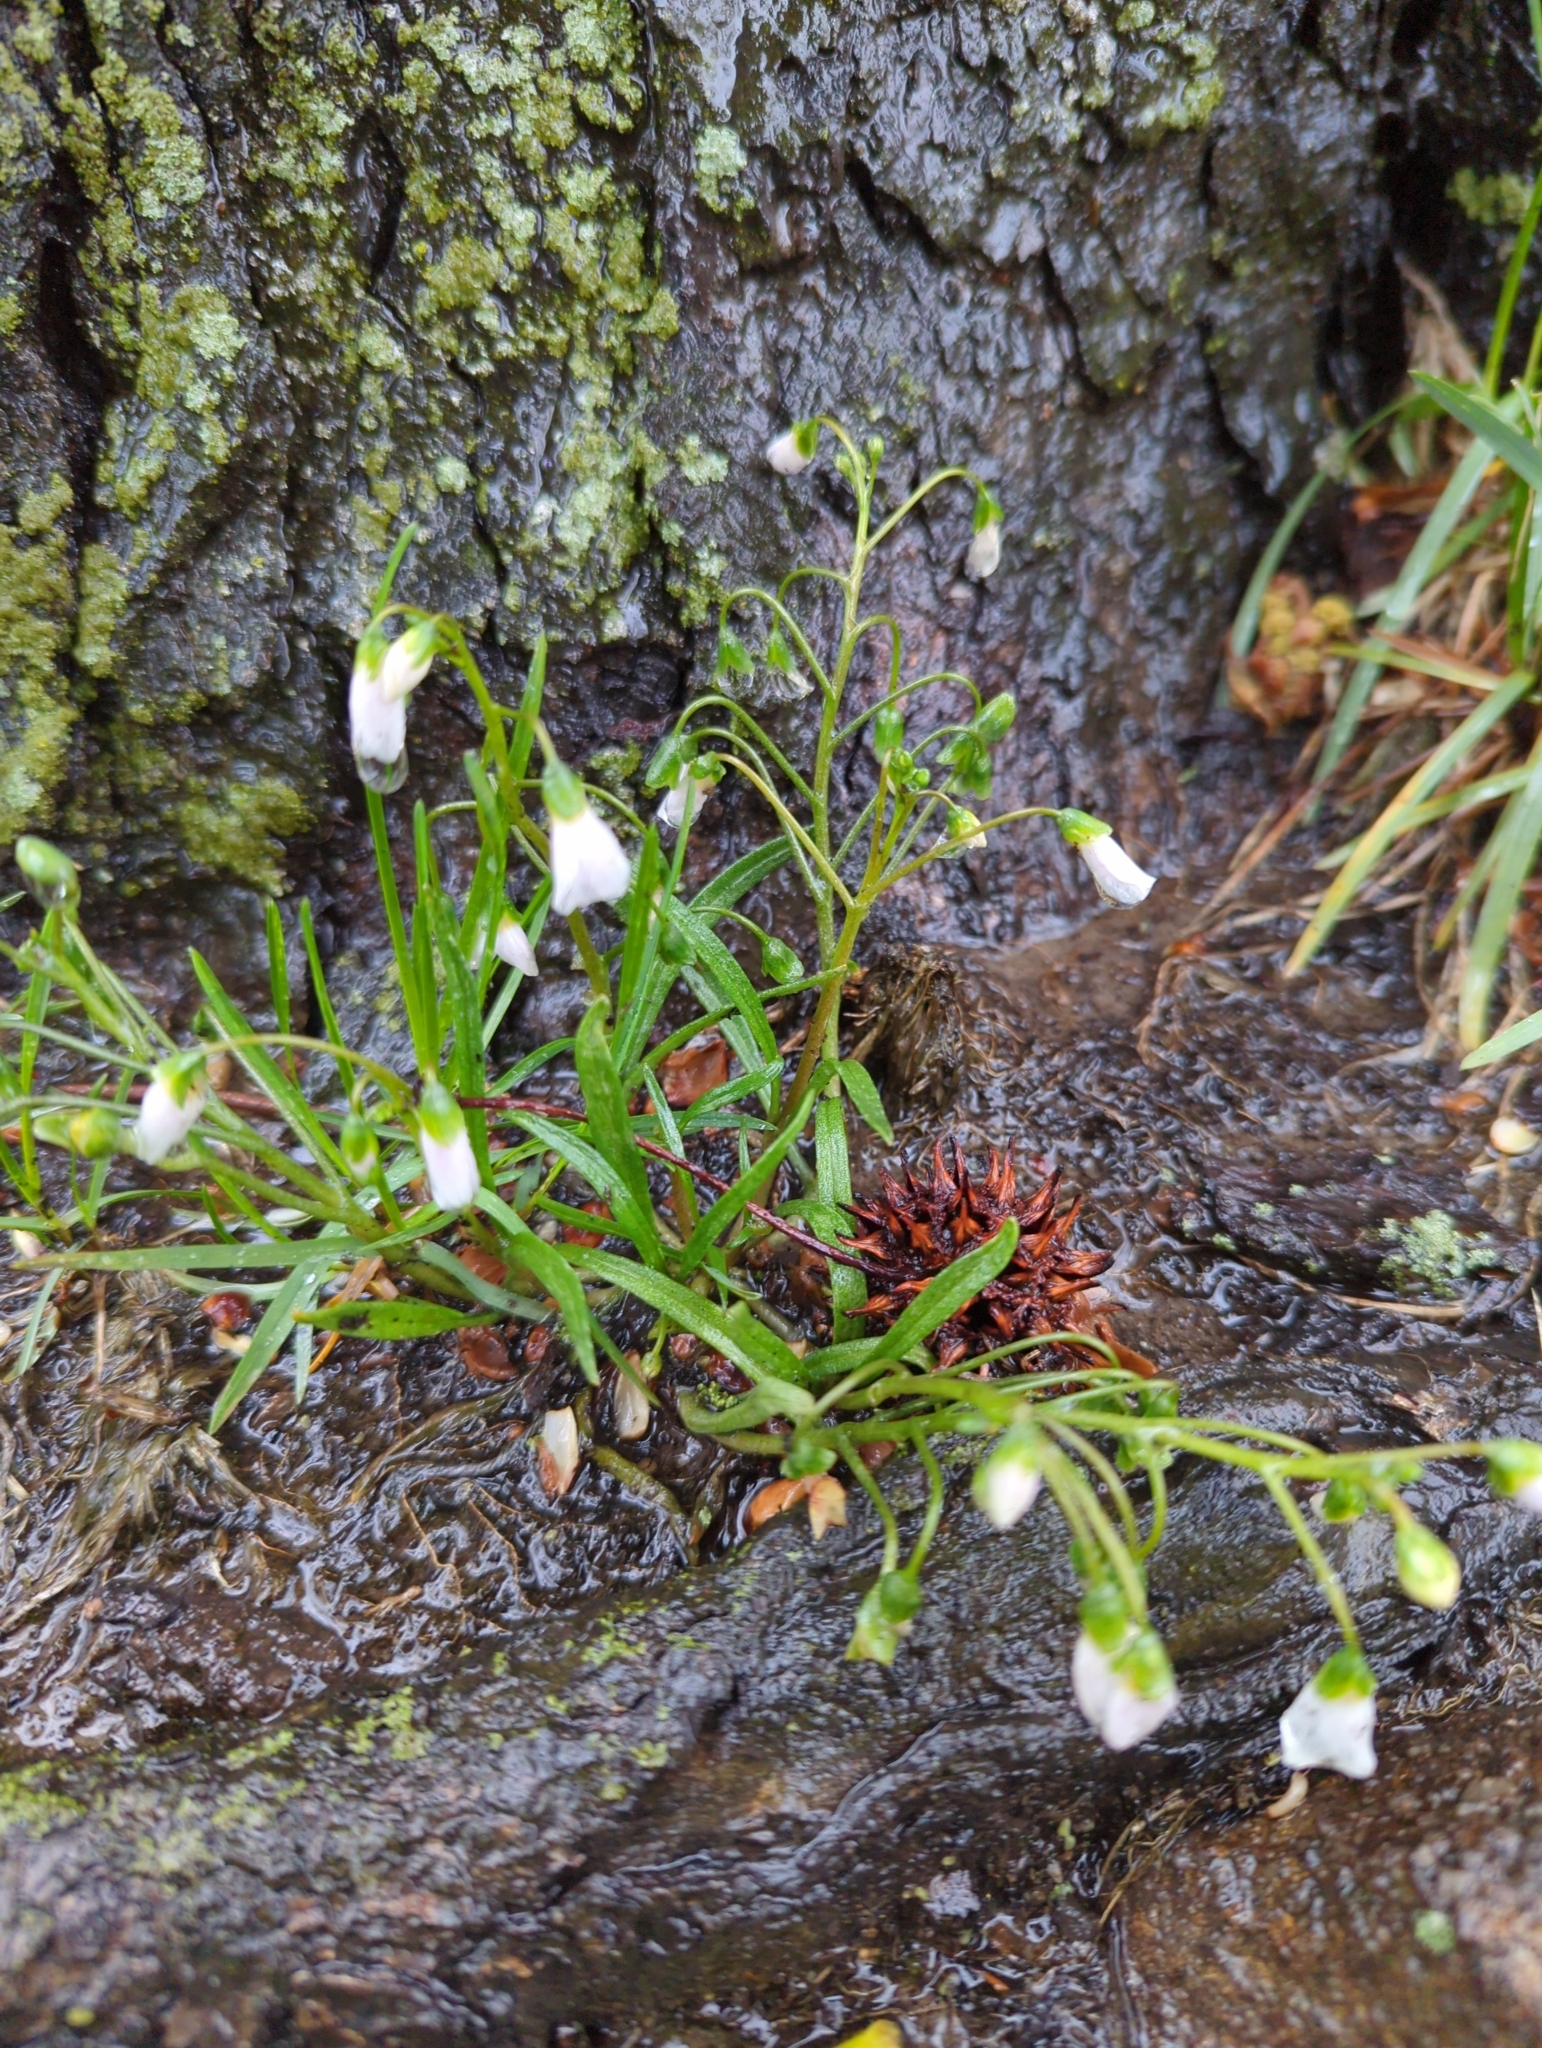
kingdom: Plantae
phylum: Tracheophyta
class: Magnoliopsida
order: Caryophyllales
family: Montiaceae
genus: Claytonia
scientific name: Claytonia virginica
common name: Virginia springbeauty
